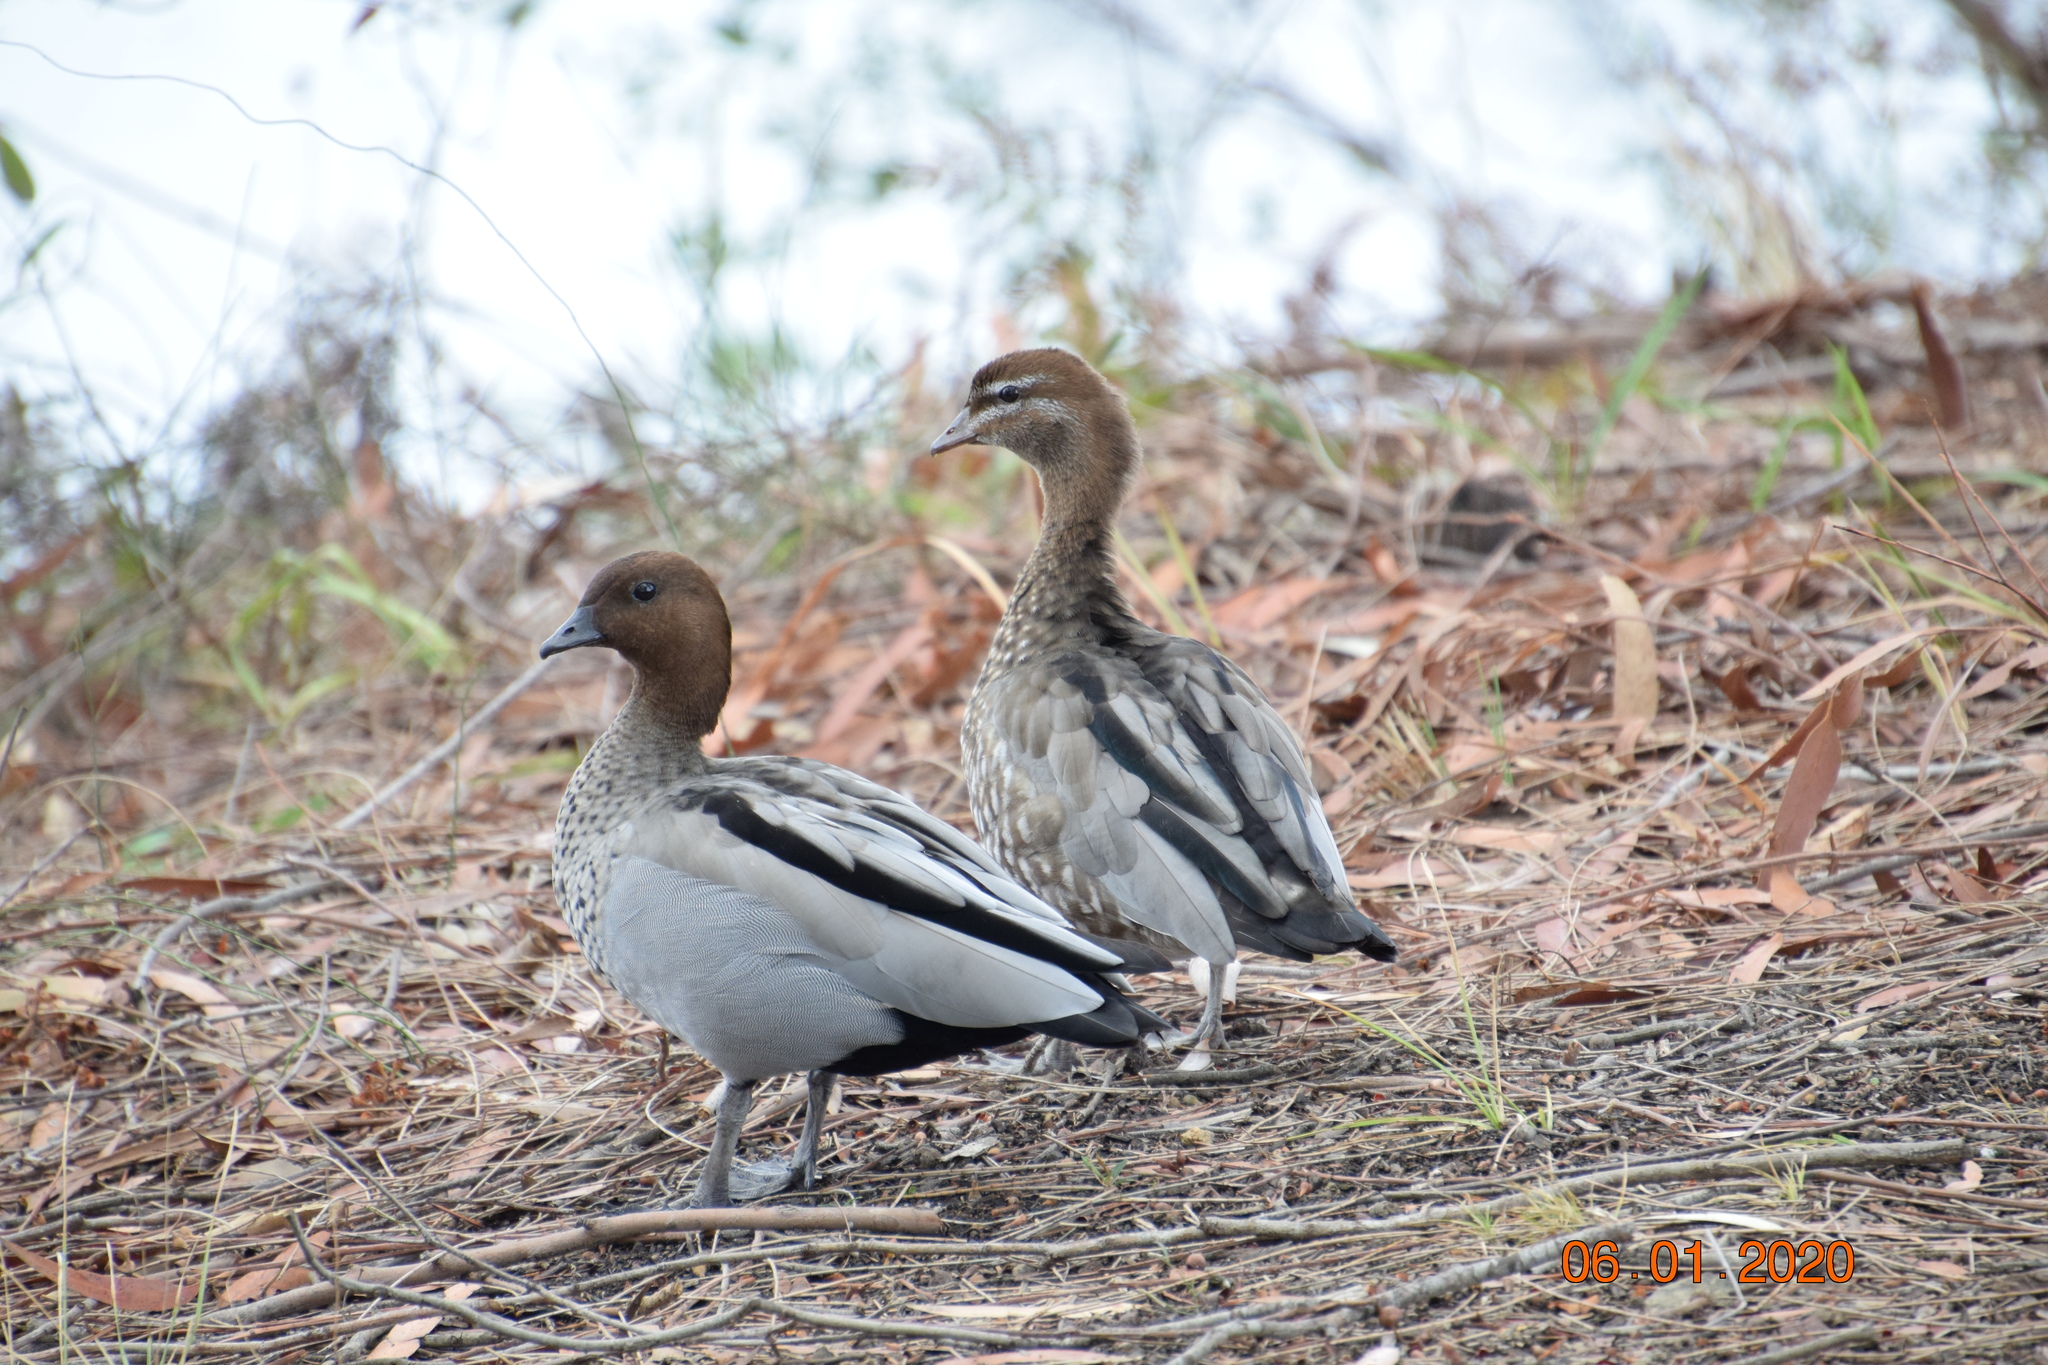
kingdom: Animalia
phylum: Chordata
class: Aves
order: Anseriformes
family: Anatidae
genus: Chenonetta
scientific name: Chenonetta jubata
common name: Maned duck
